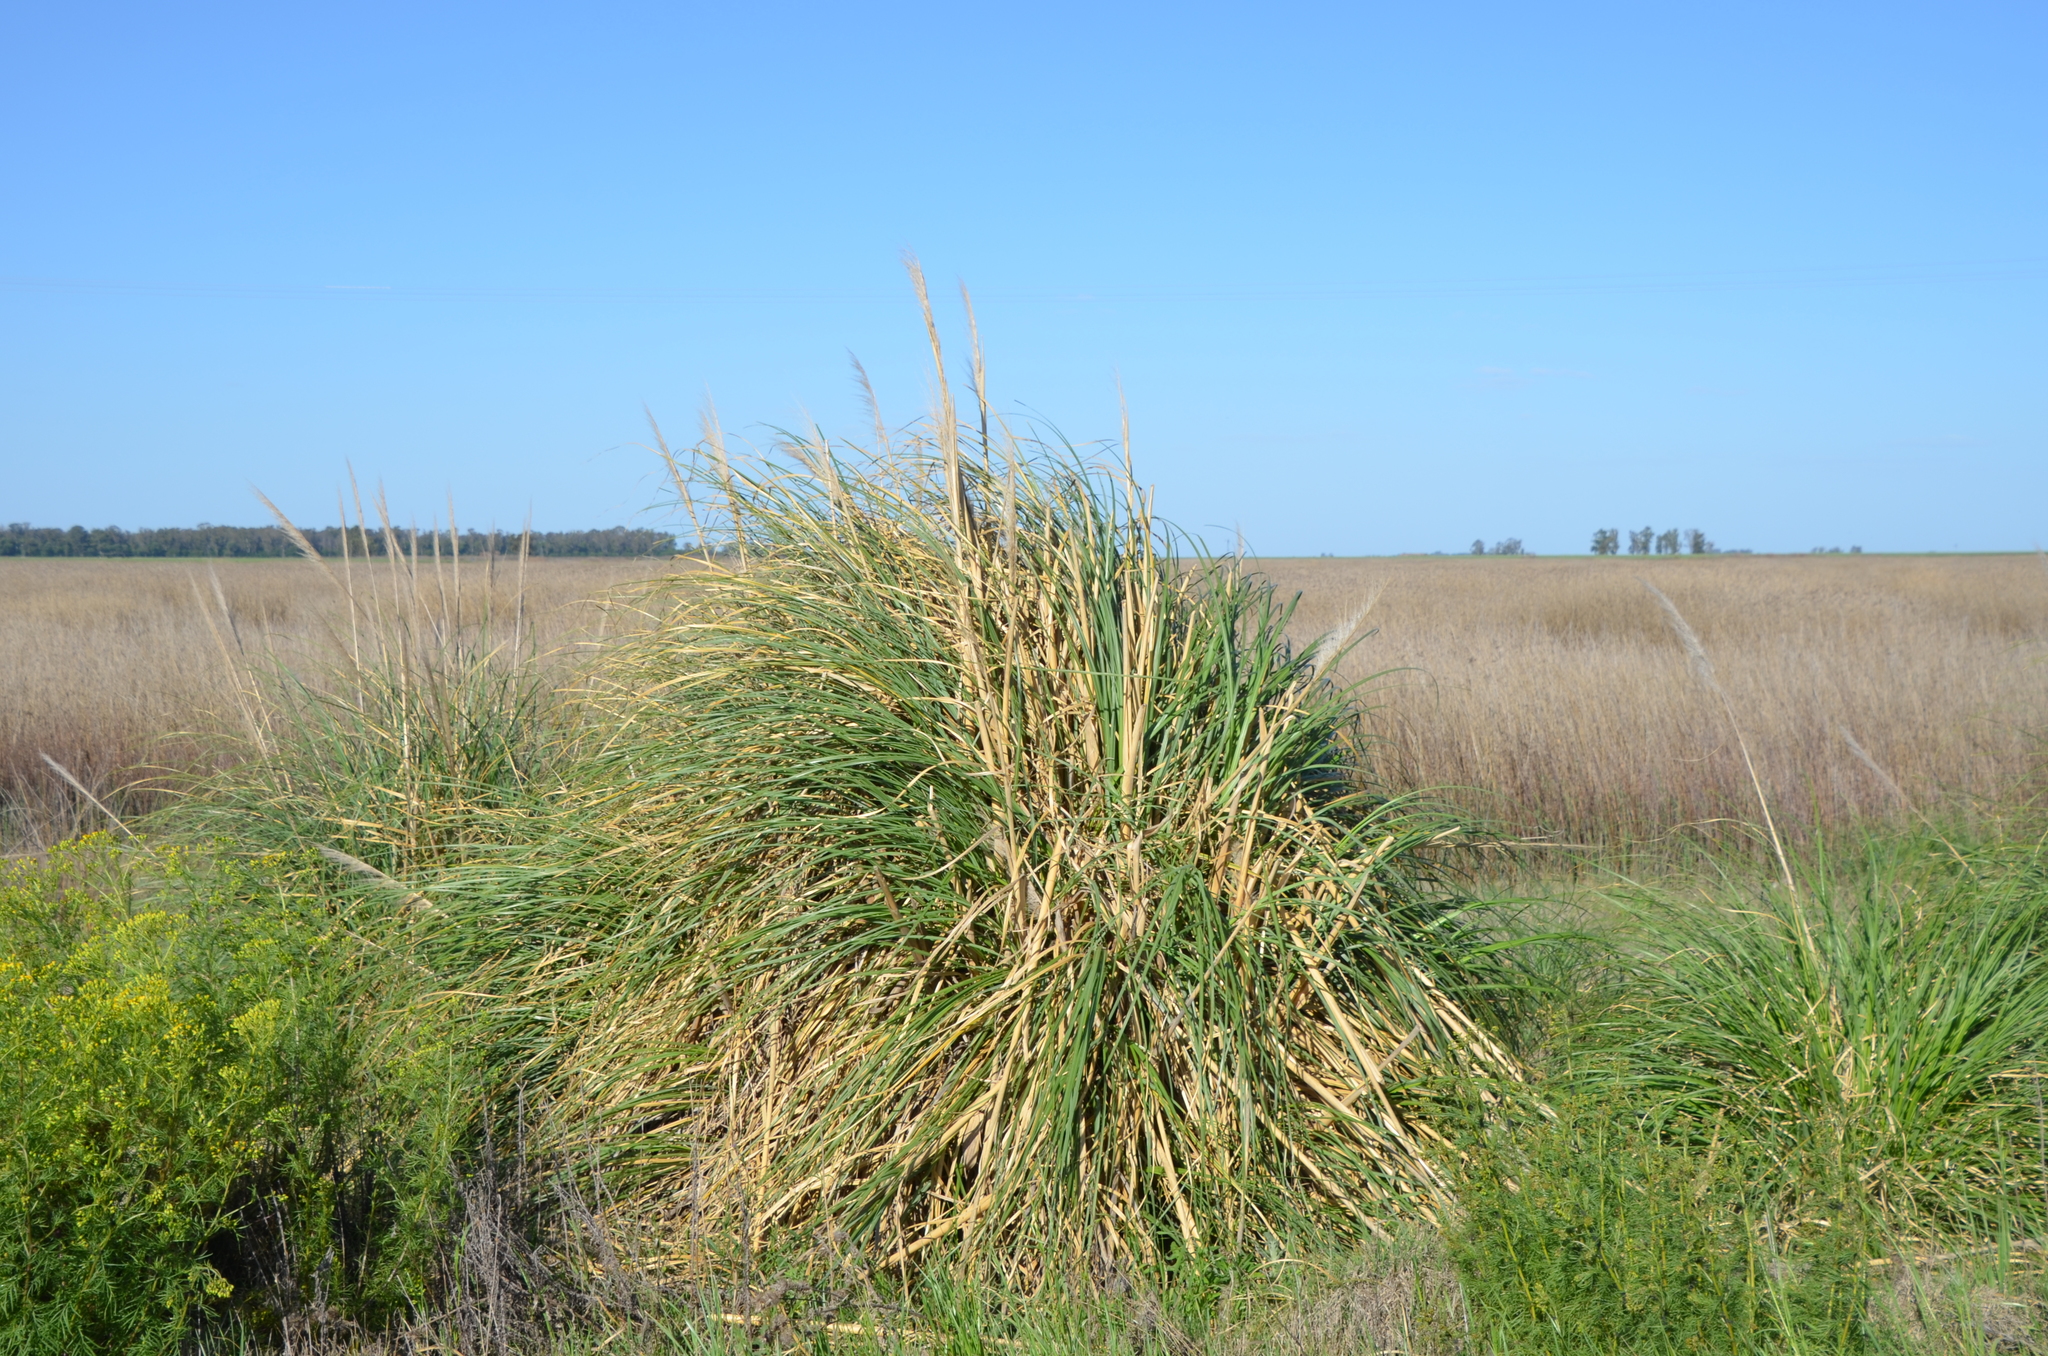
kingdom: Plantae
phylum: Tracheophyta
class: Liliopsida
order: Poales
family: Poaceae
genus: Cortaderia
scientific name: Cortaderia selloana
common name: Uruguayan pampas grass
